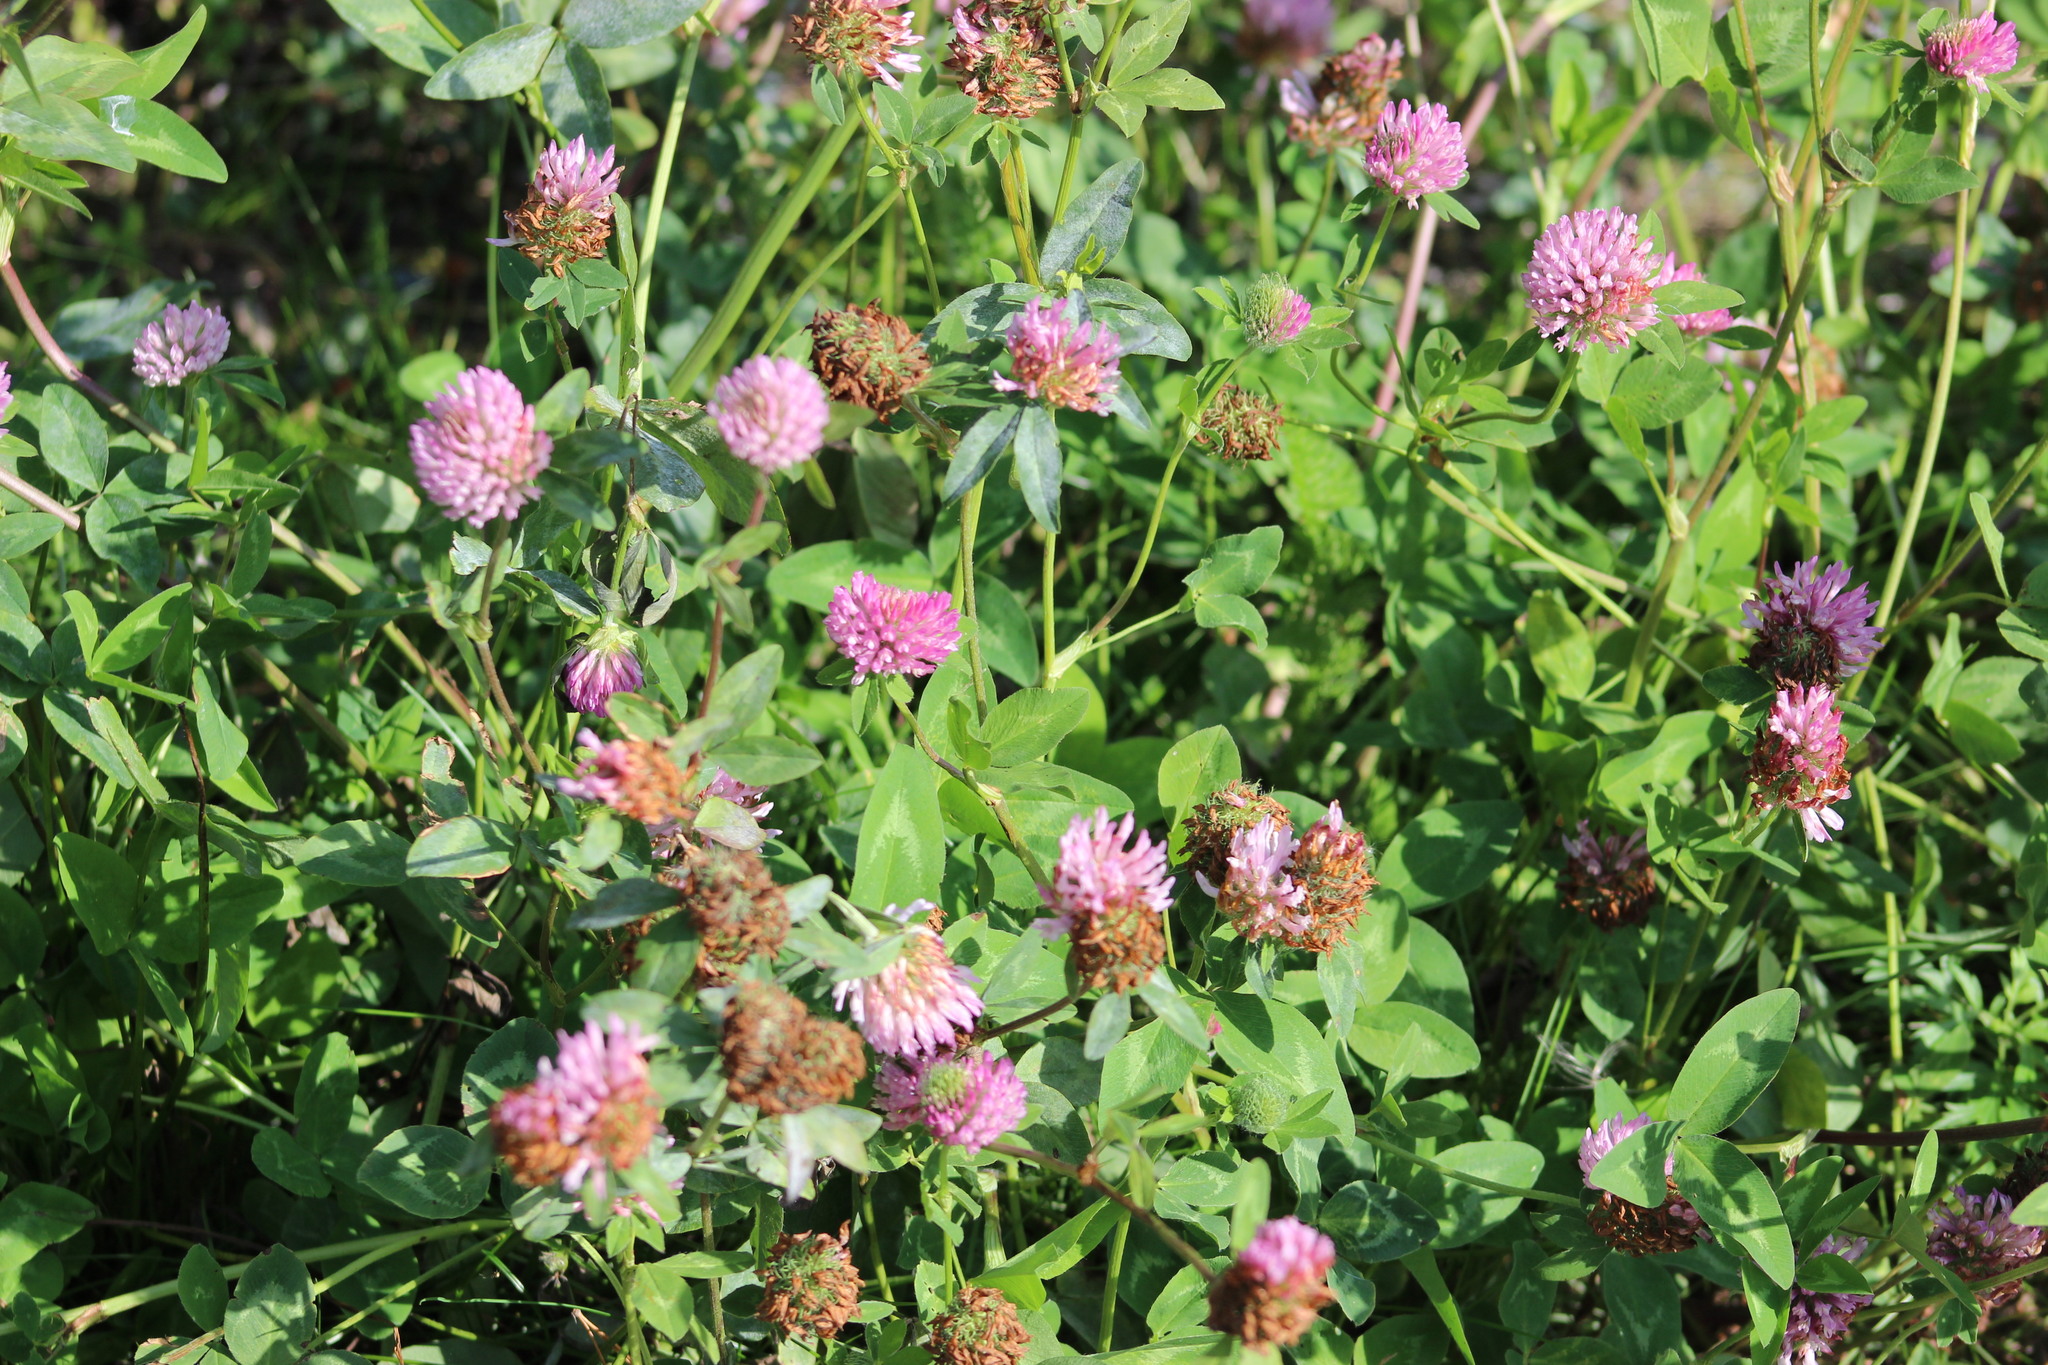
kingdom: Plantae
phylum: Tracheophyta
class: Magnoliopsida
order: Fabales
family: Fabaceae
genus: Trifolium
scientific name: Trifolium pratense
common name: Red clover
